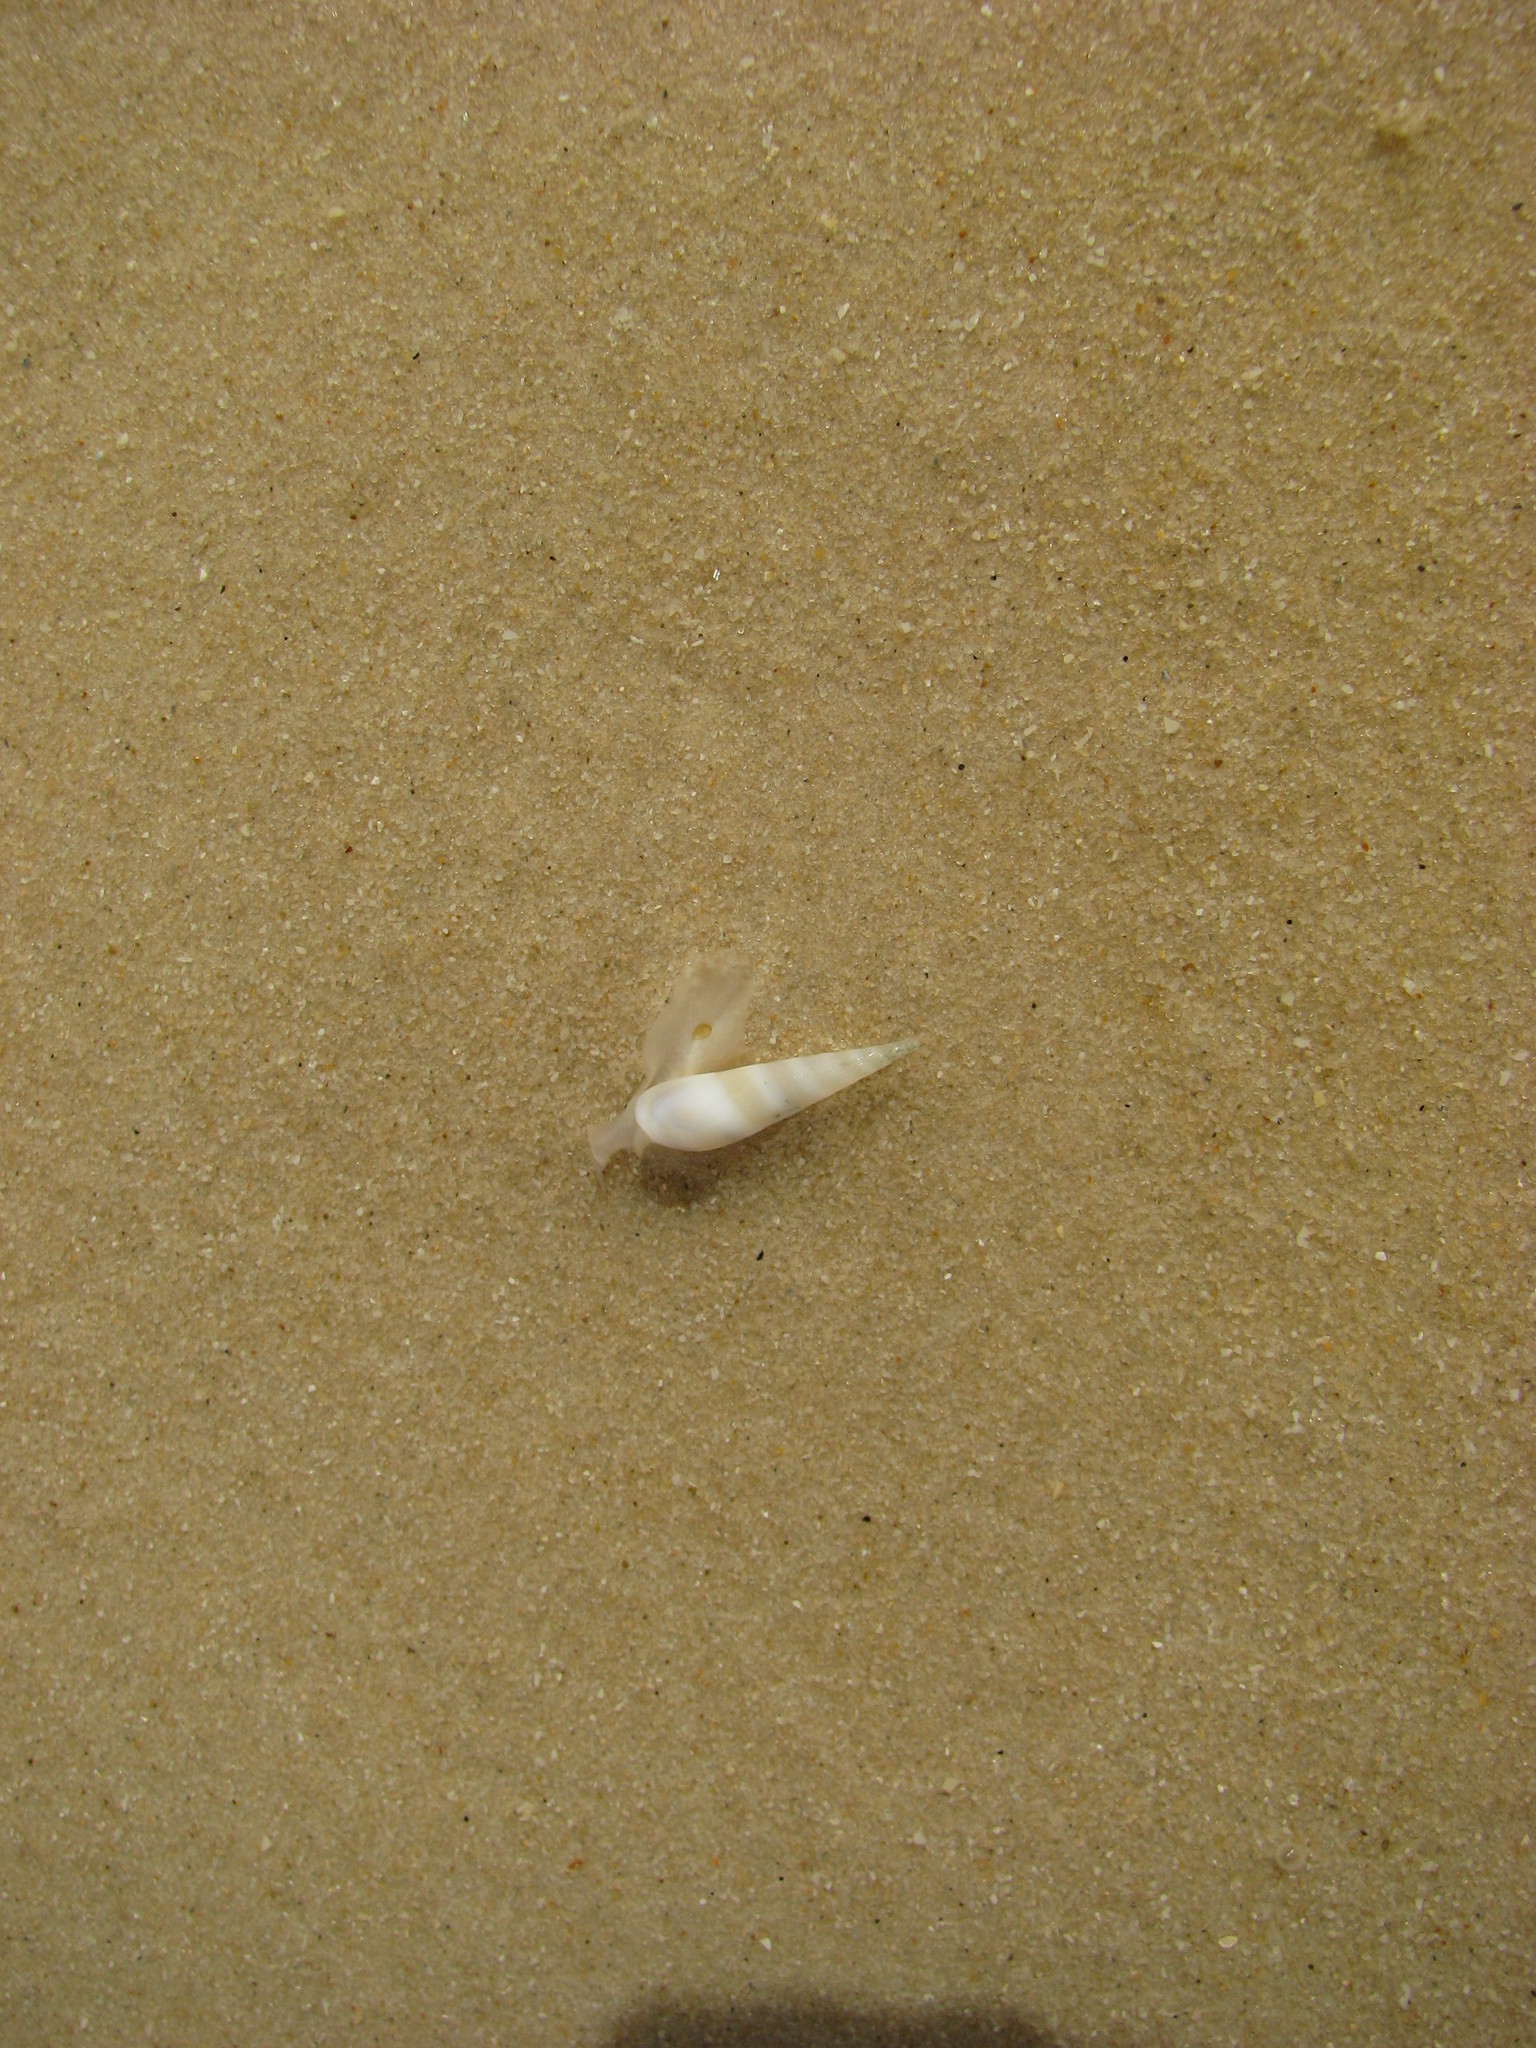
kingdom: Animalia
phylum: Mollusca
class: Gastropoda
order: Neogastropoda
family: Terebridae
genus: Hastula
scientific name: Hastula aciculina
